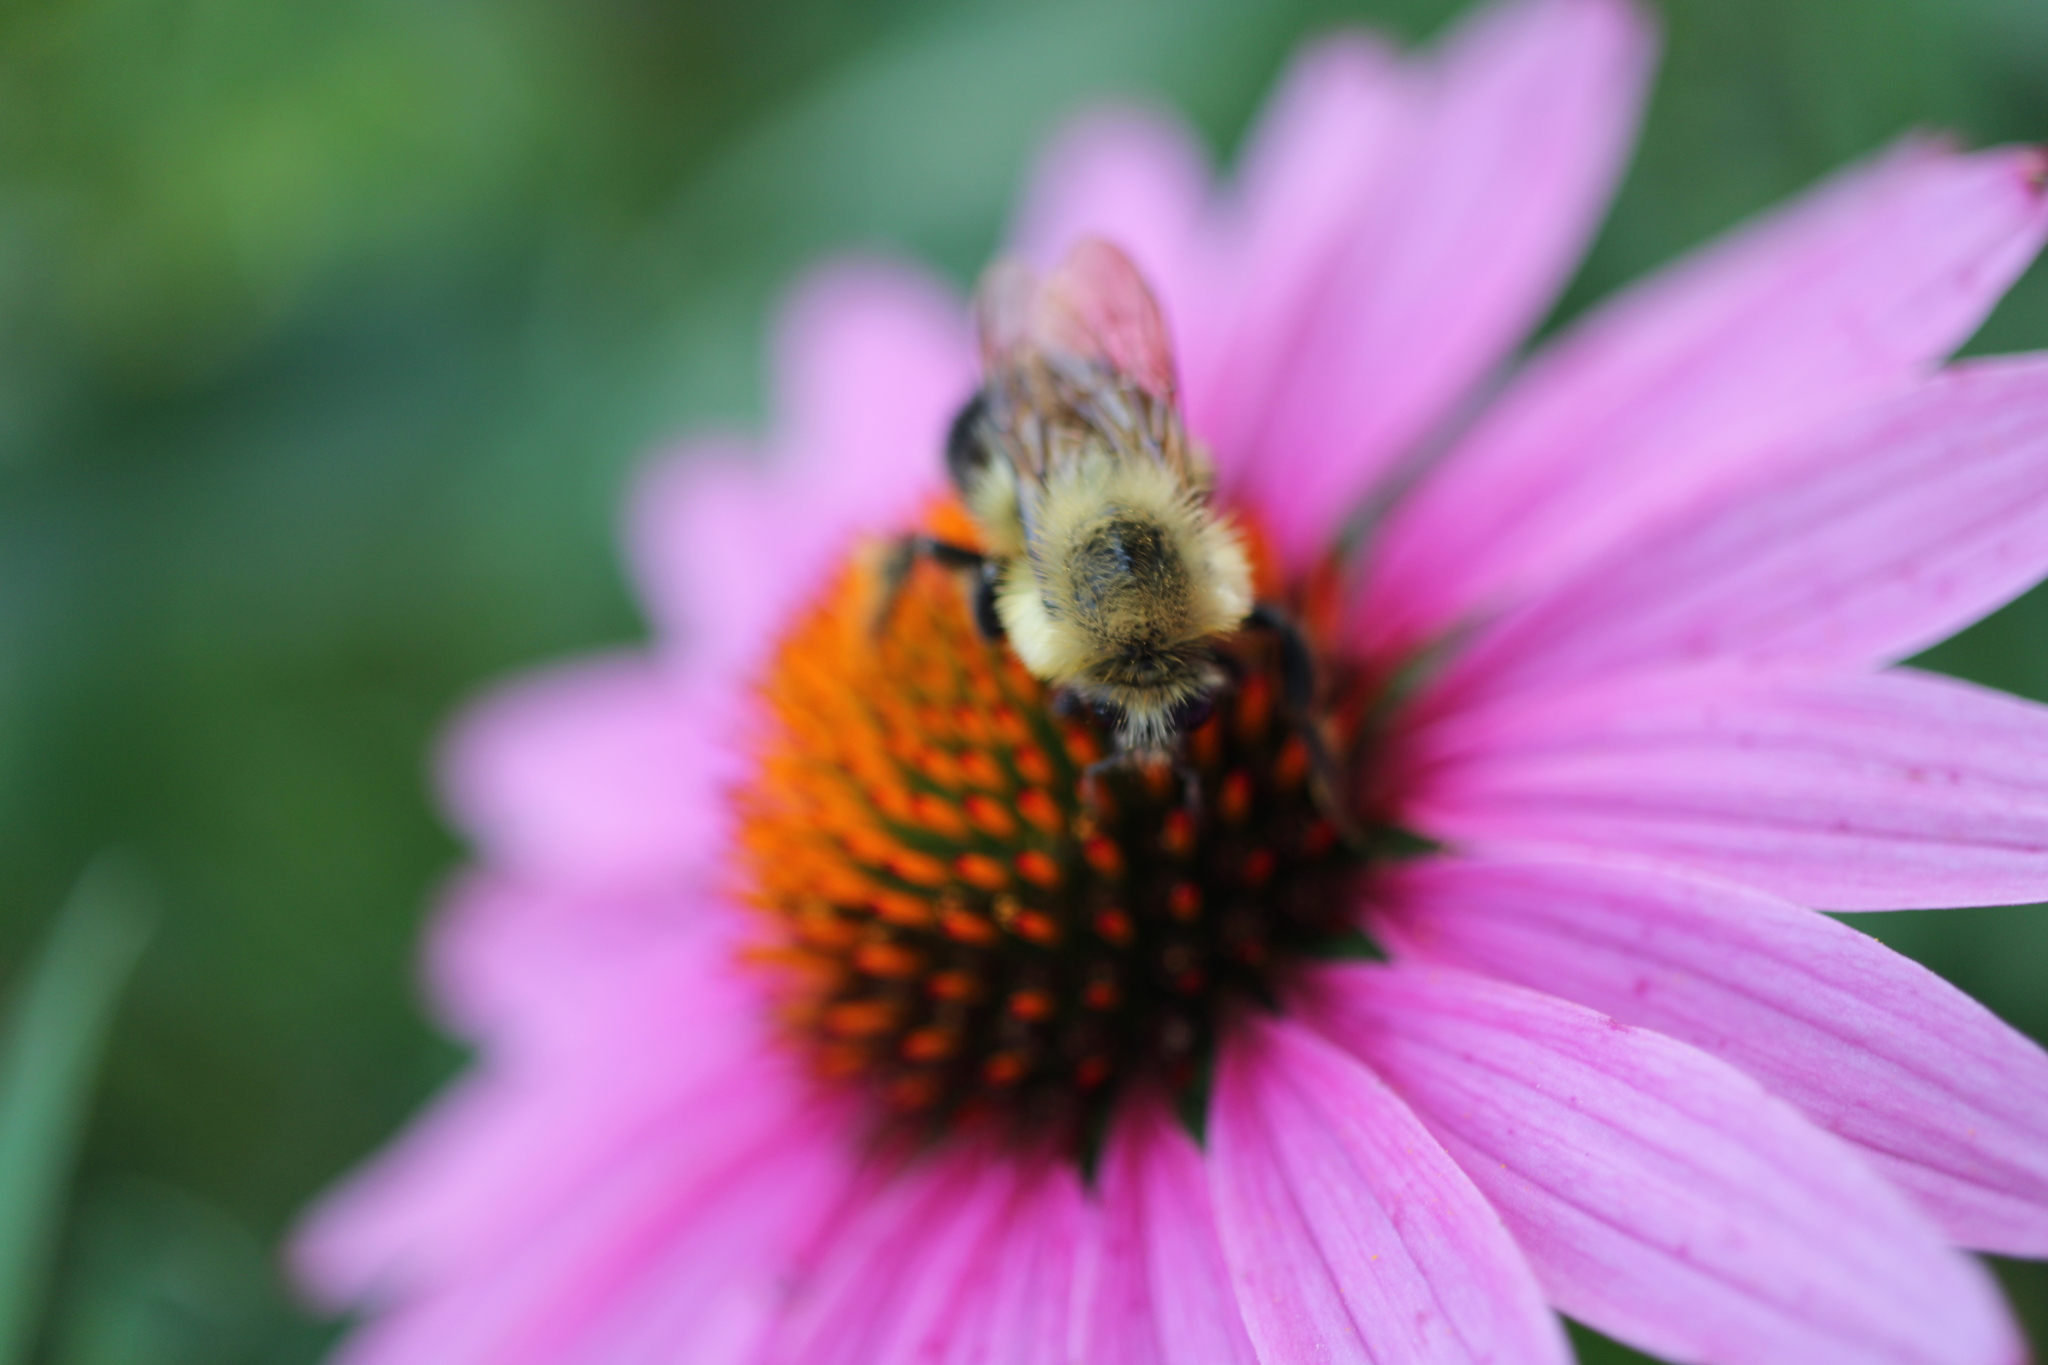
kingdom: Animalia
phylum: Arthropoda
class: Insecta
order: Hymenoptera
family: Apidae
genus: Bombus
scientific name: Bombus griseocollis
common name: Brown-belted bumble bee
